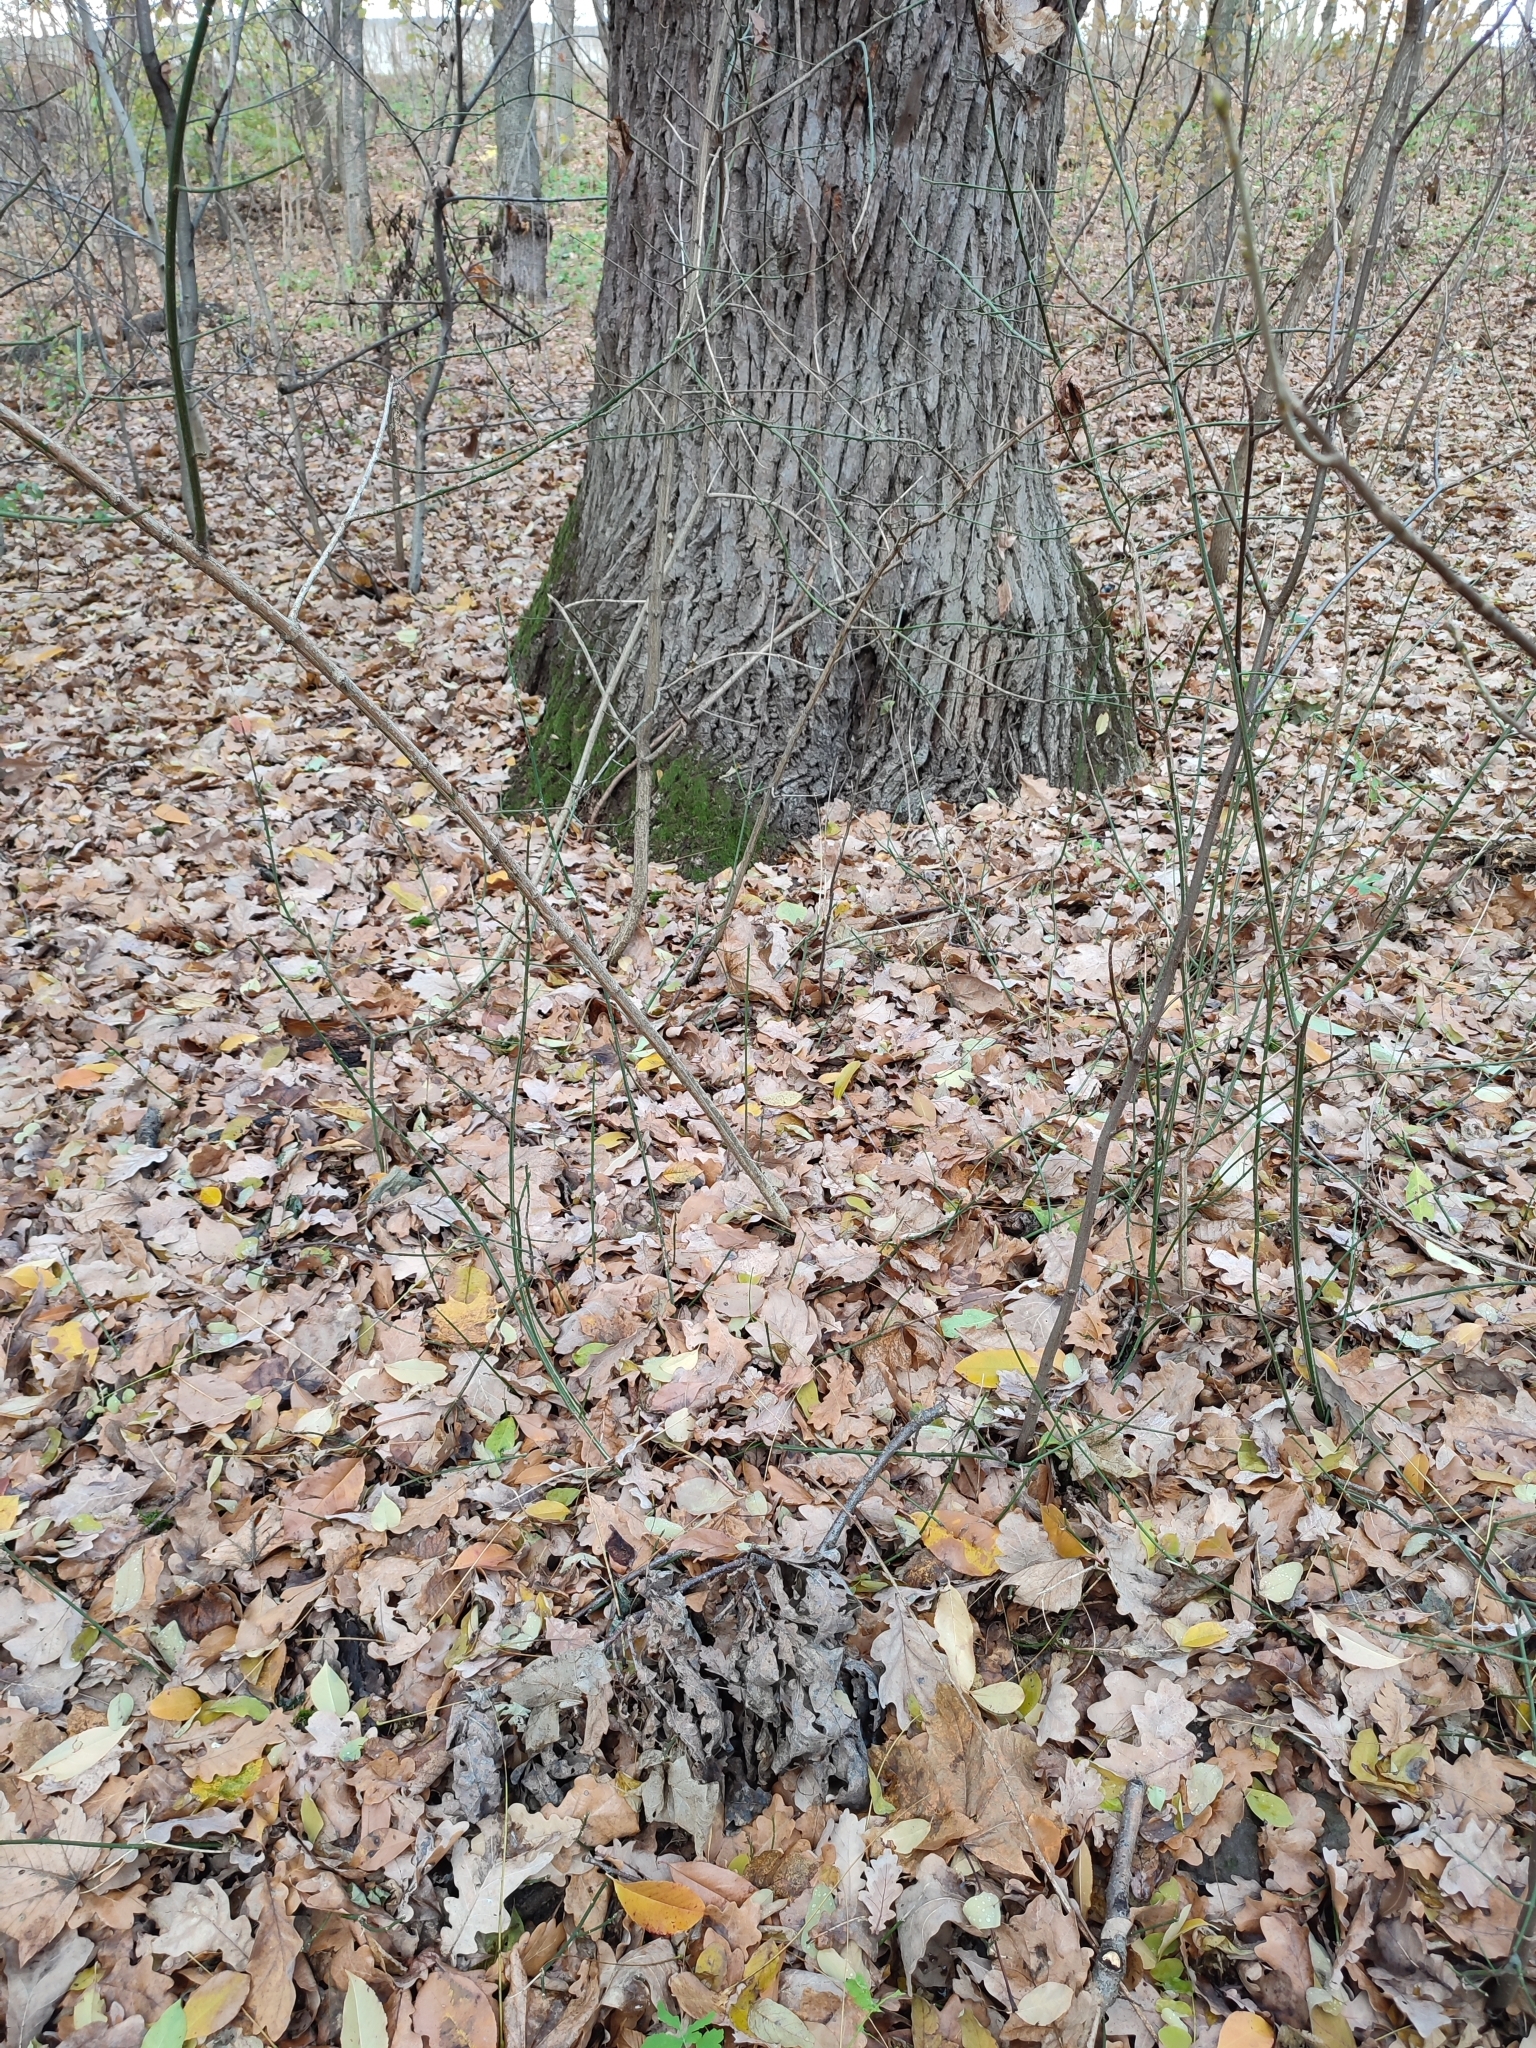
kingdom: Plantae
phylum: Tracheophyta
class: Magnoliopsida
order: Fagales
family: Fagaceae
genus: Quercus
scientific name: Quercus robur
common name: Pedunculate oak
